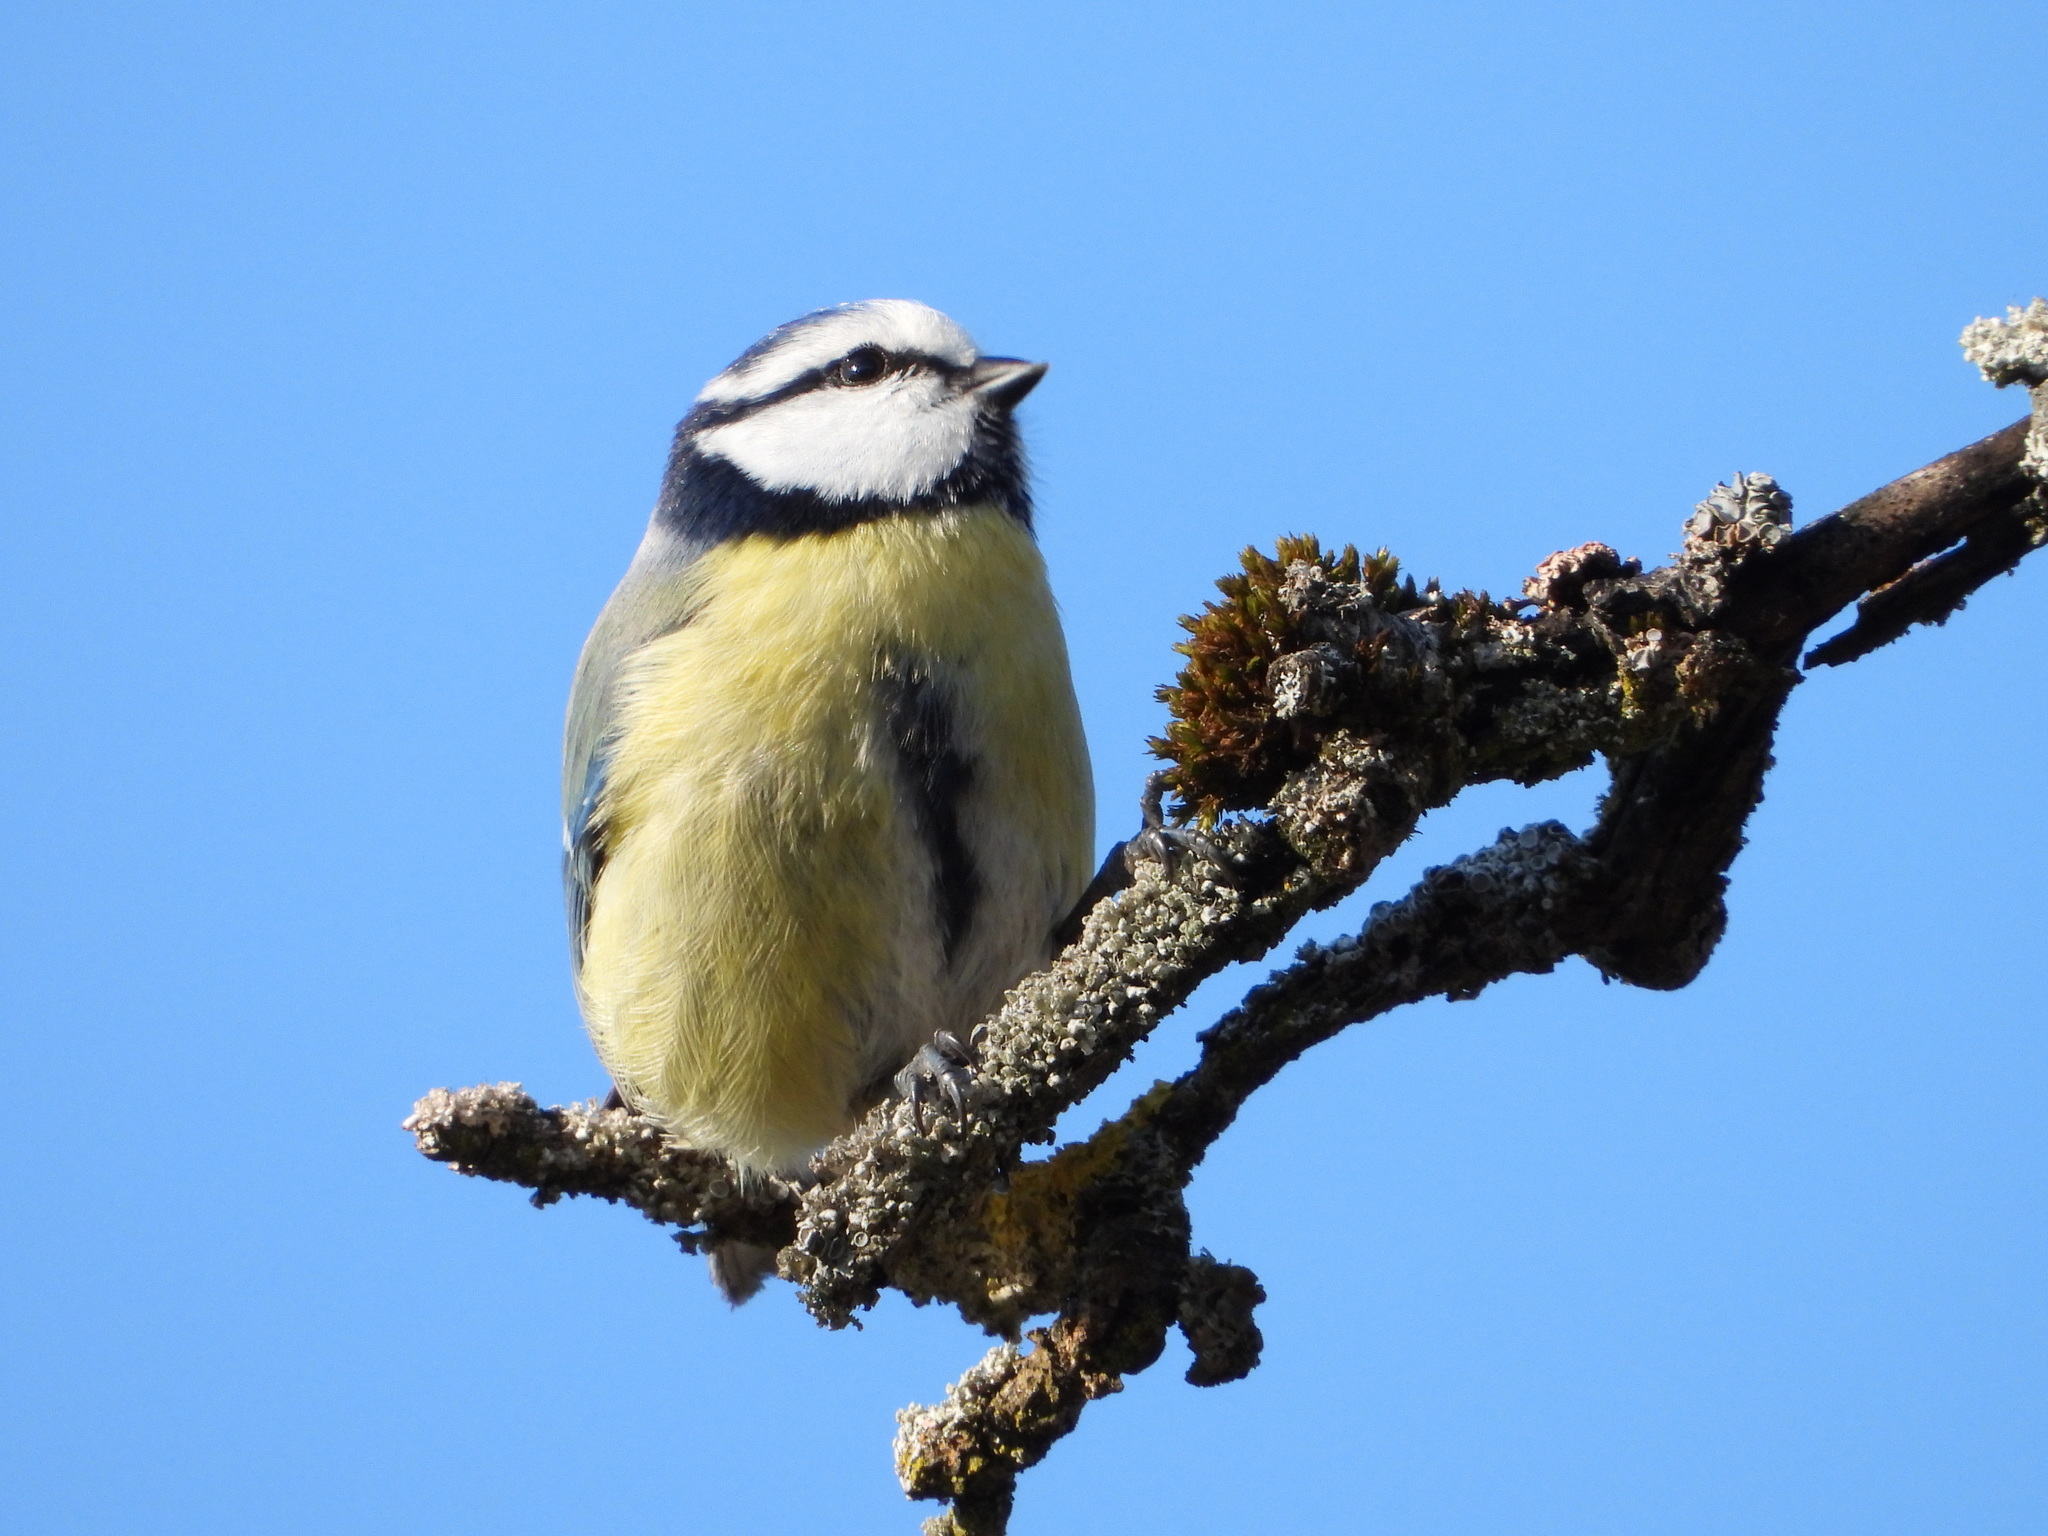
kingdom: Animalia
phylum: Chordata
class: Aves
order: Passeriformes
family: Paridae
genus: Cyanistes
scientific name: Cyanistes caeruleus
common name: Eurasian blue tit
